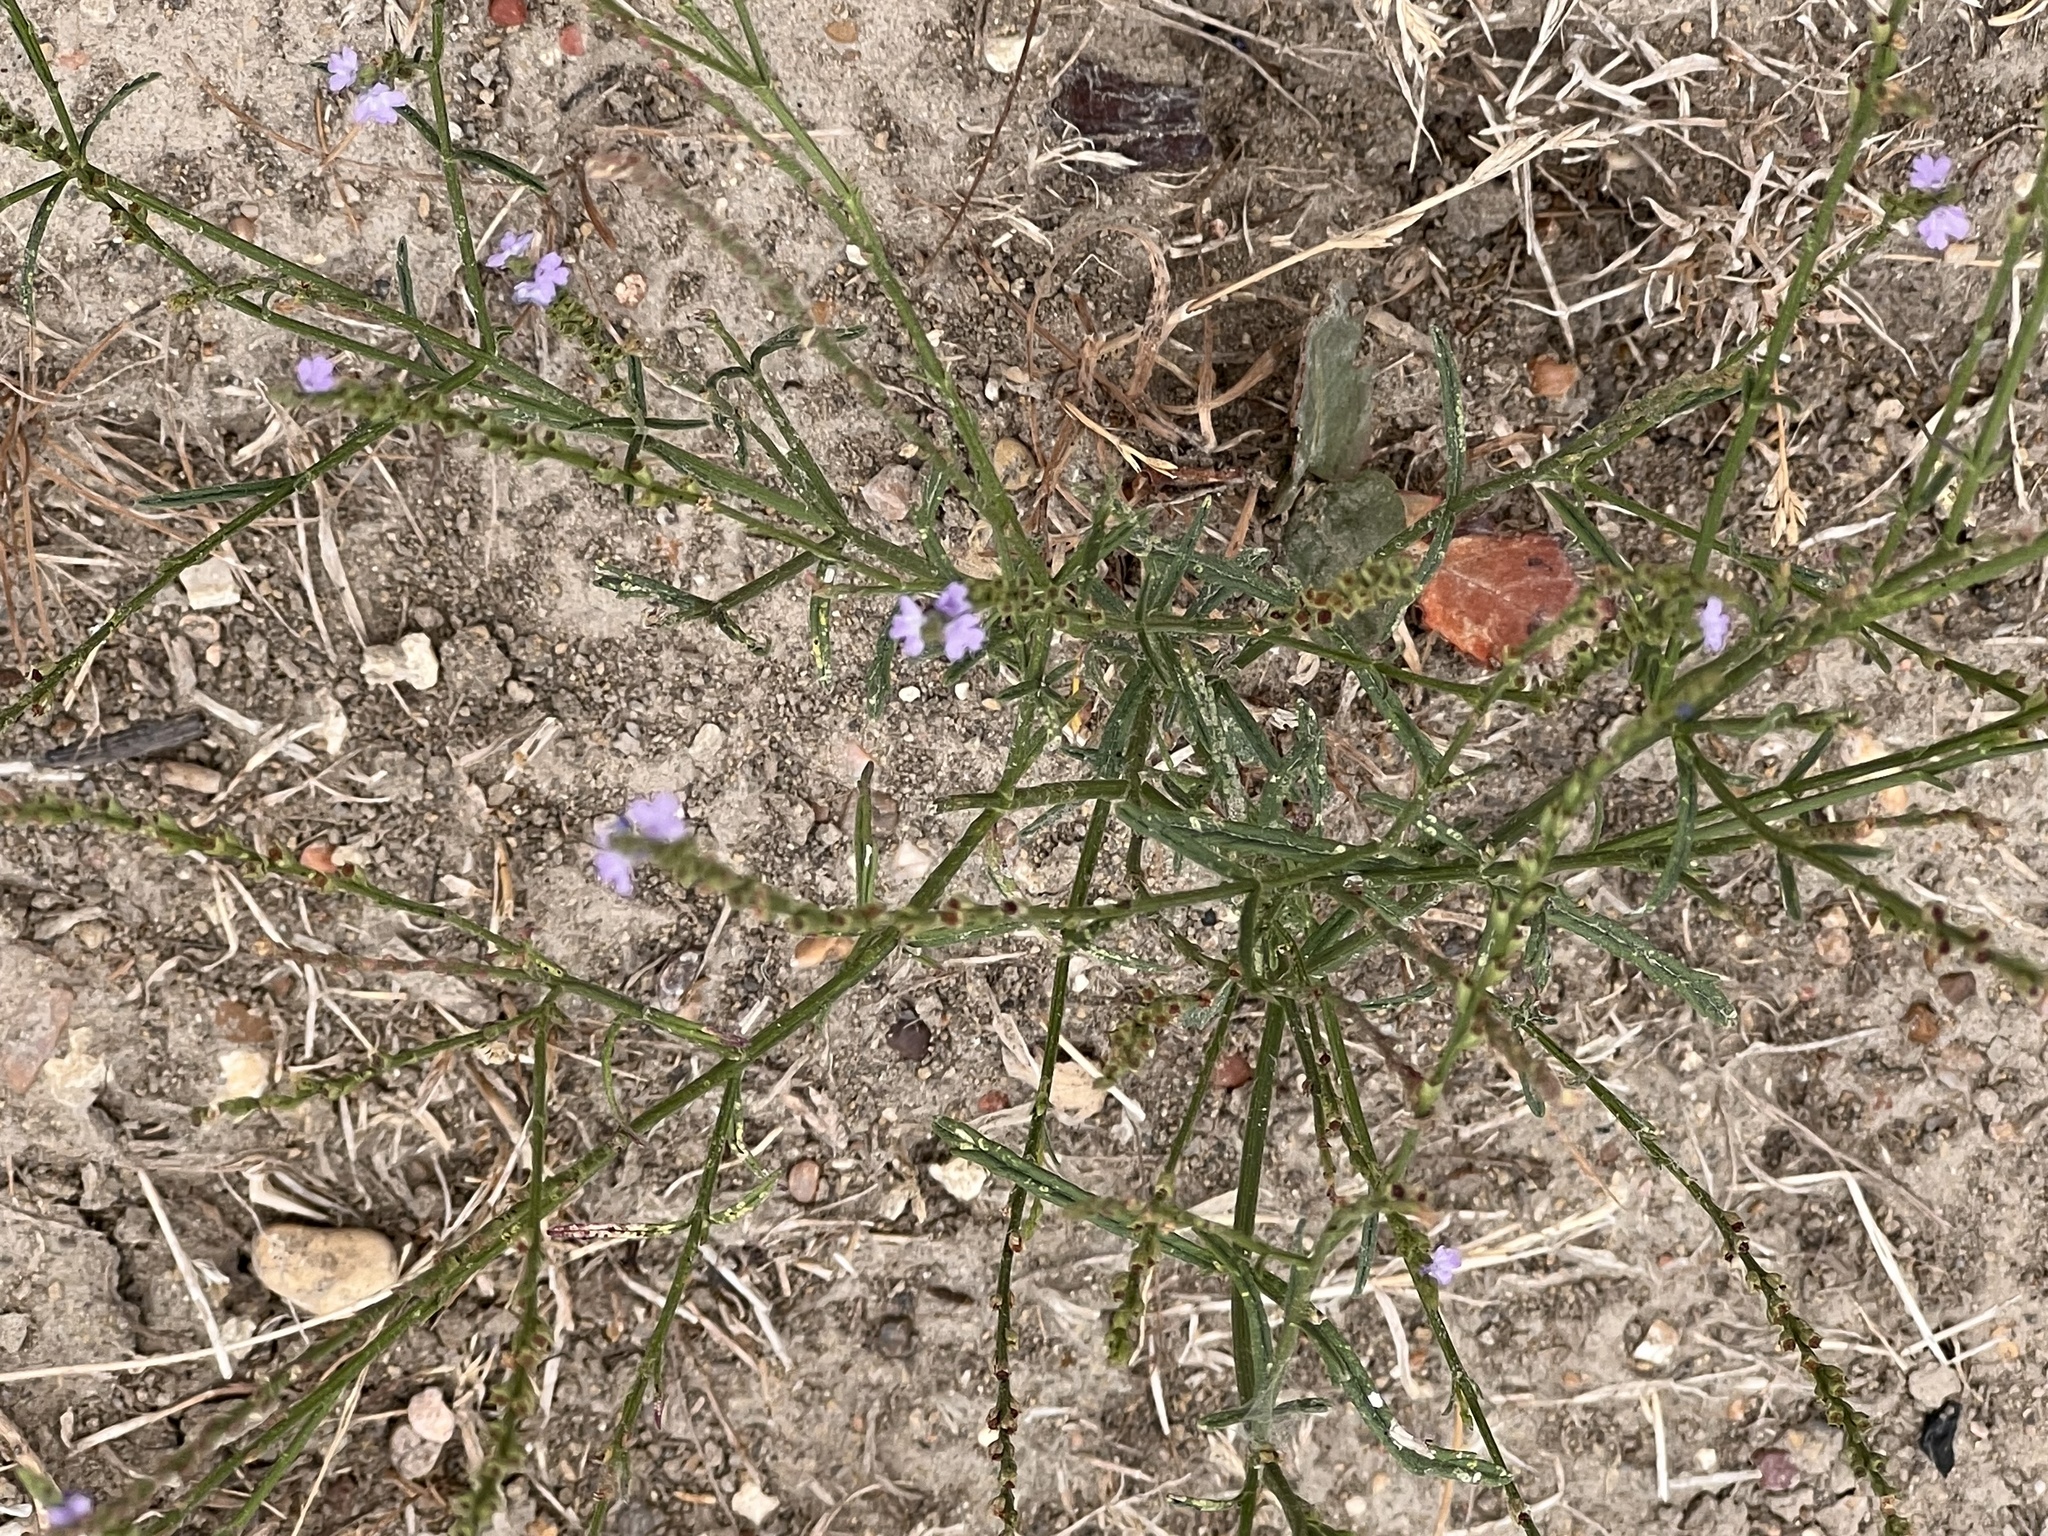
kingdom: Plantae
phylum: Tracheophyta
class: Magnoliopsida
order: Lamiales
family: Verbenaceae
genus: Verbena
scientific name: Verbena halei
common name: Texas vervain
